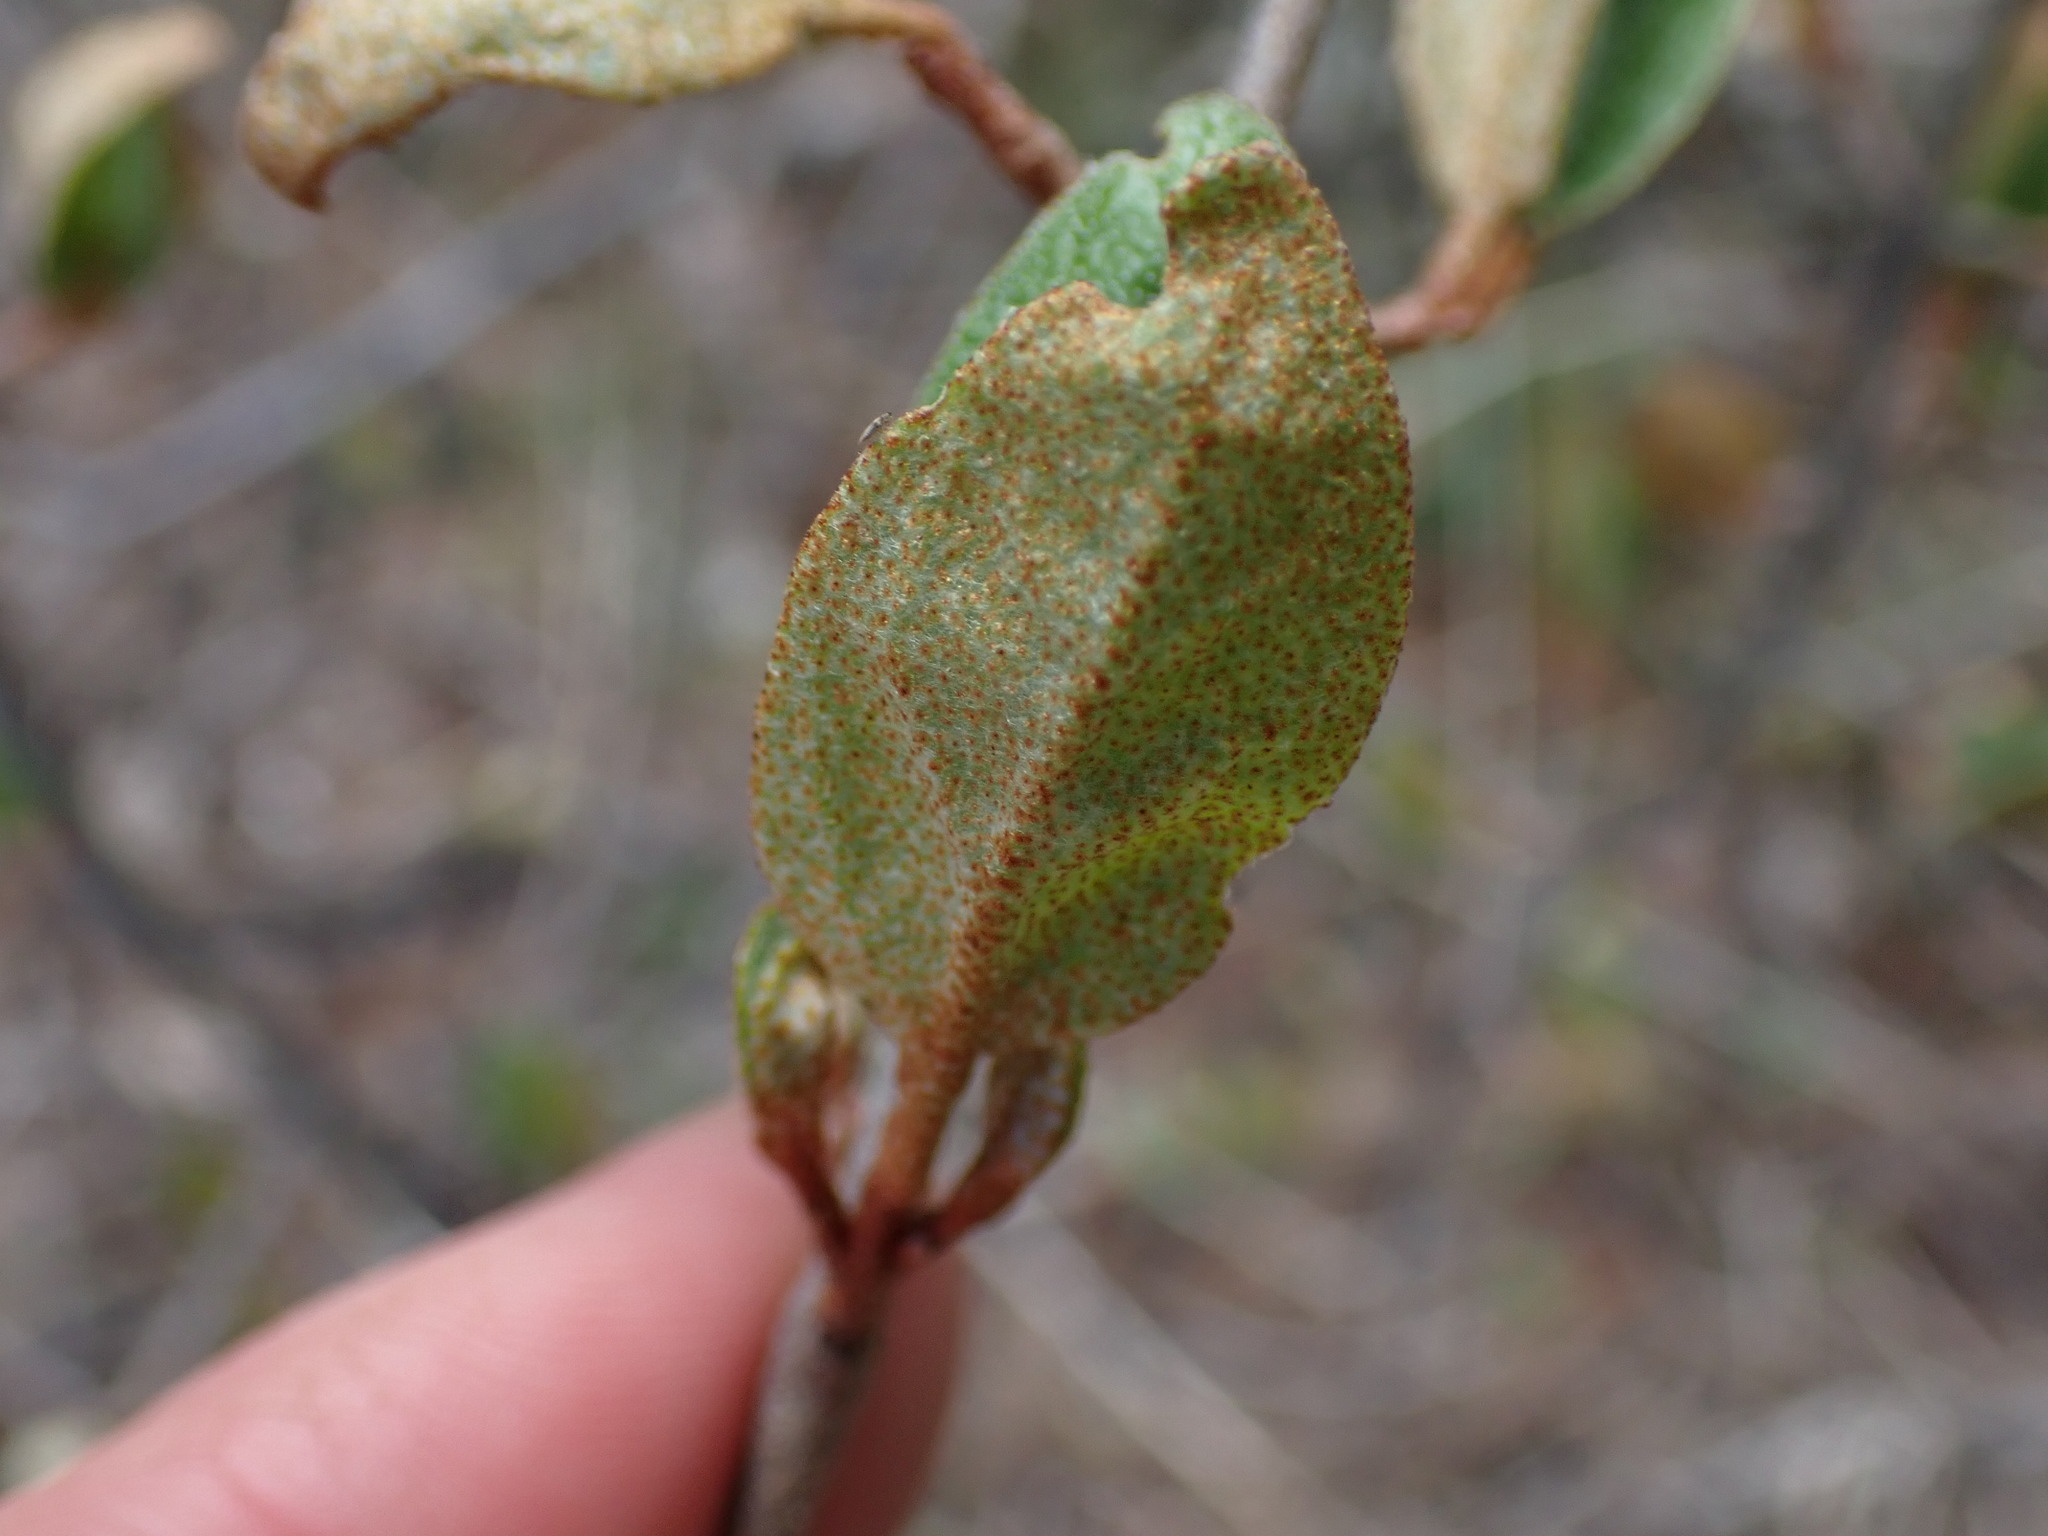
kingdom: Plantae
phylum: Tracheophyta
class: Magnoliopsida
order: Rosales
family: Elaeagnaceae
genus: Shepherdia
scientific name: Shepherdia canadensis
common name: Soapberry
